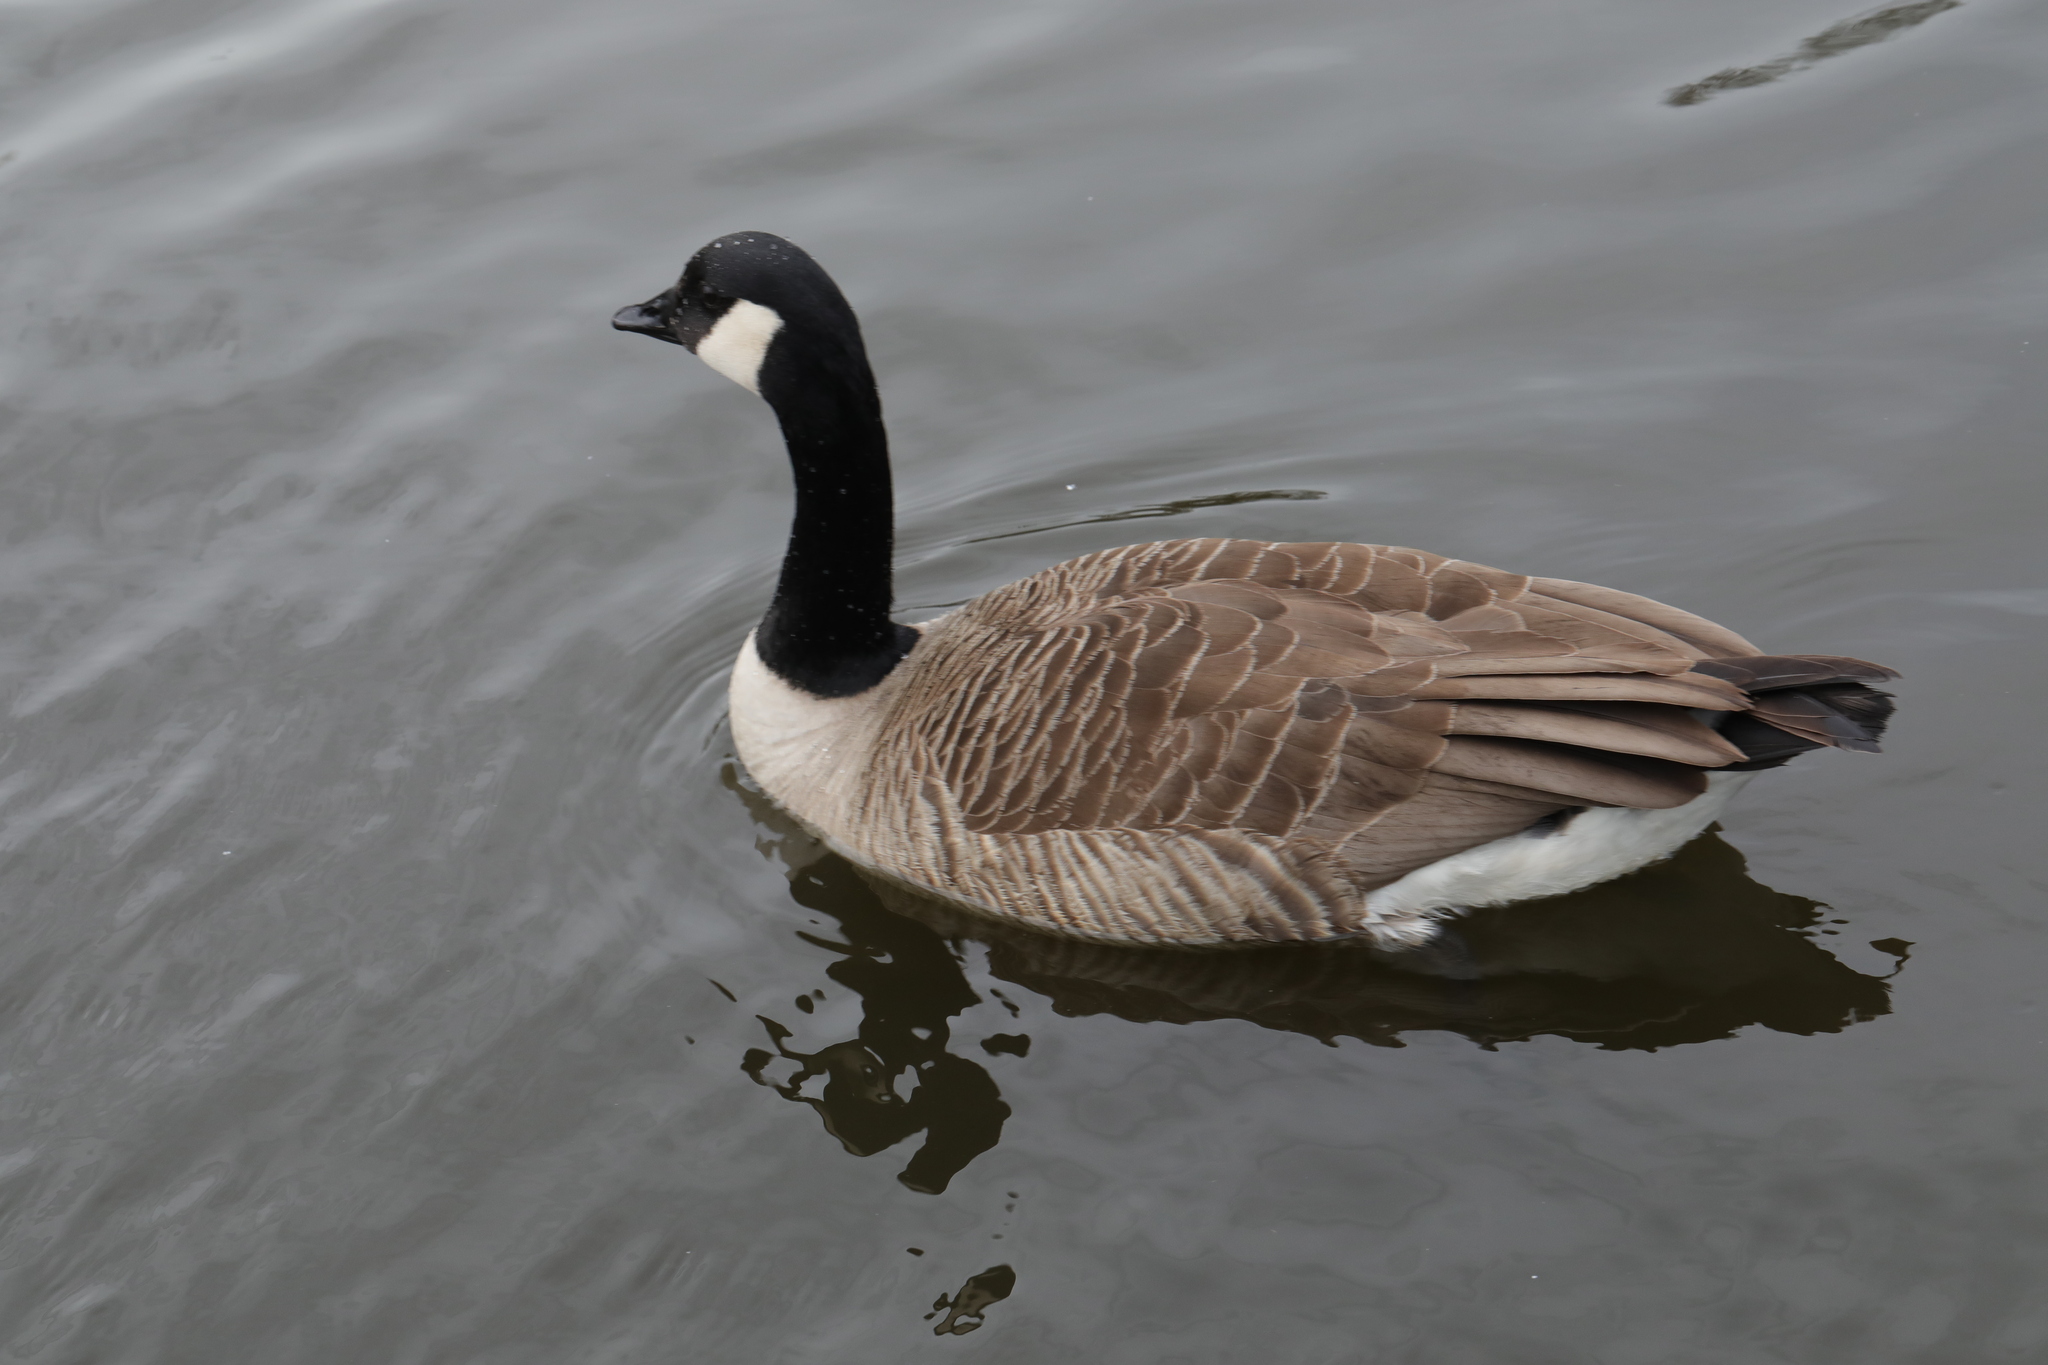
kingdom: Animalia
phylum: Chordata
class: Aves
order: Anseriformes
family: Anatidae
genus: Branta
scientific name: Branta canadensis
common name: Canada goose
